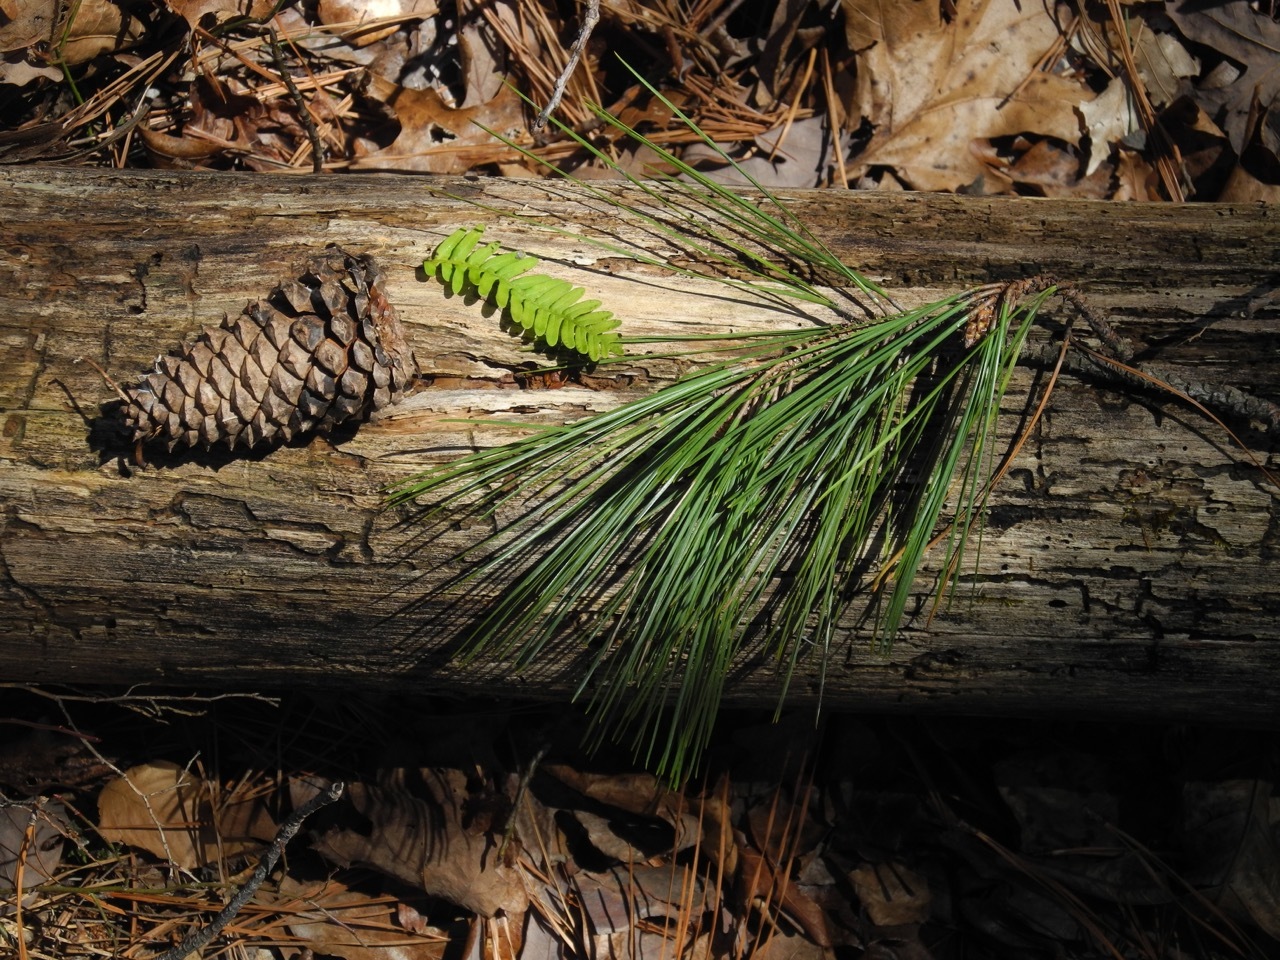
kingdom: Plantae
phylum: Tracheophyta
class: Pinopsida
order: Pinales
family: Pinaceae
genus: Pinus
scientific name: Pinus taeda
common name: Loblolly pine
